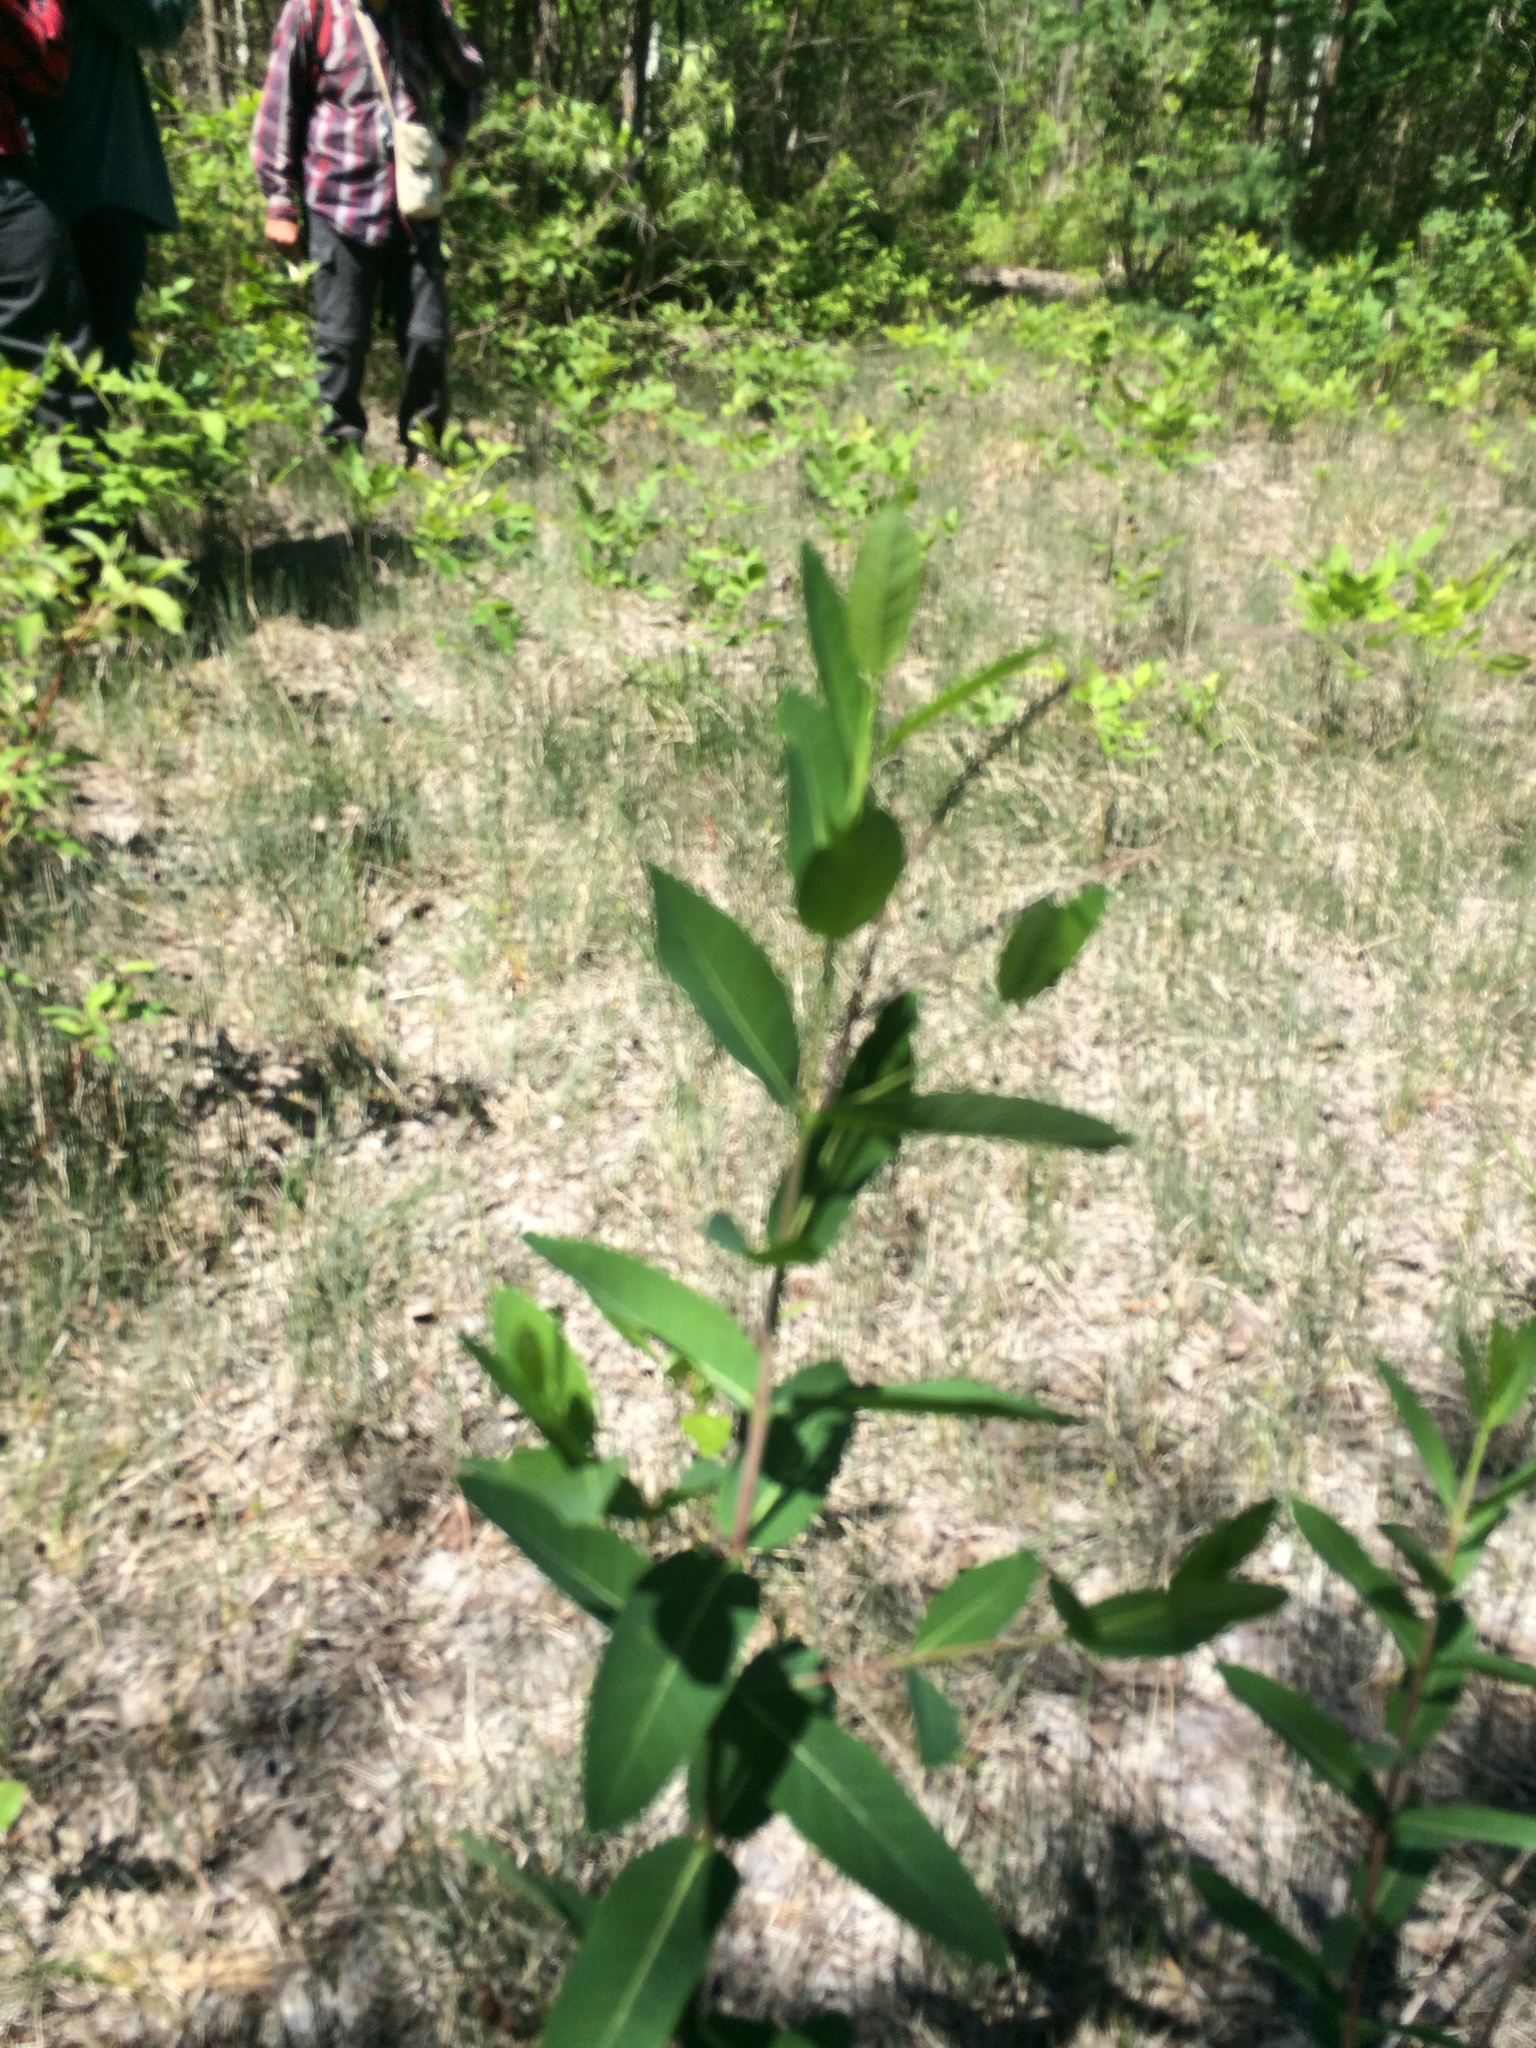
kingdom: Plantae
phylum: Tracheophyta
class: Magnoliopsida
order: Gentianales
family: Apocynaceae
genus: Apocynum
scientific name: Apocynum cannabinum
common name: Hemp dogbane
